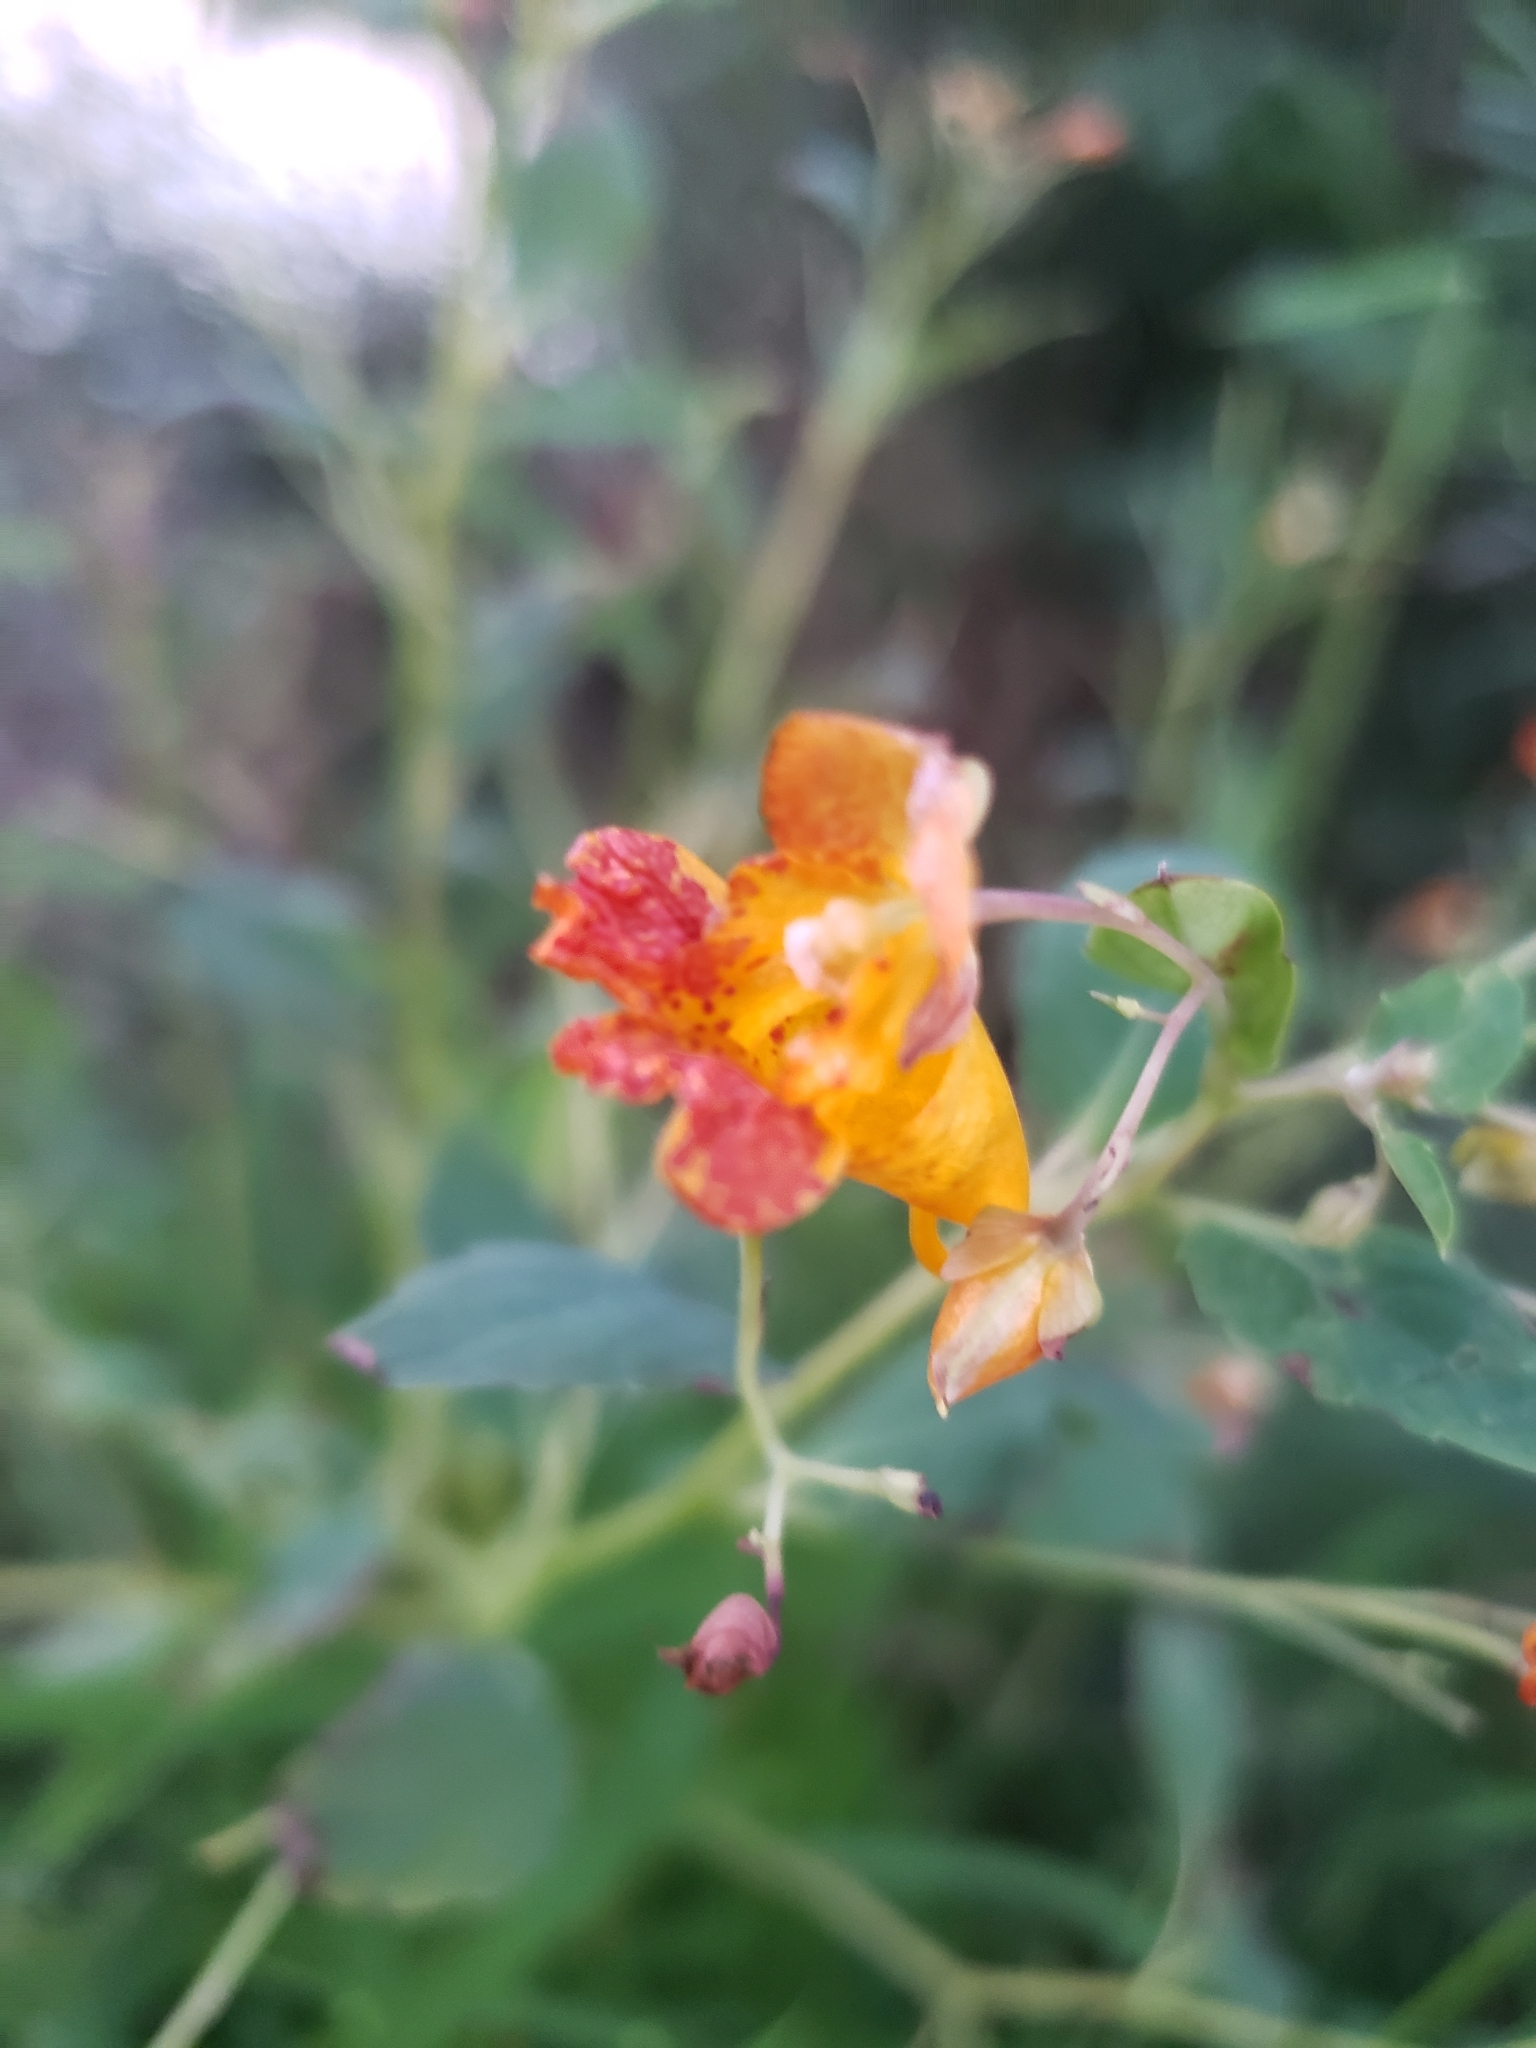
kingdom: Plantae
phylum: Tracheophyta
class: Magnoliopsida
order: Ericales
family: Balsaminaceae
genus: Impatiens
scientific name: Impatiens capensis
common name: Orange balsam
